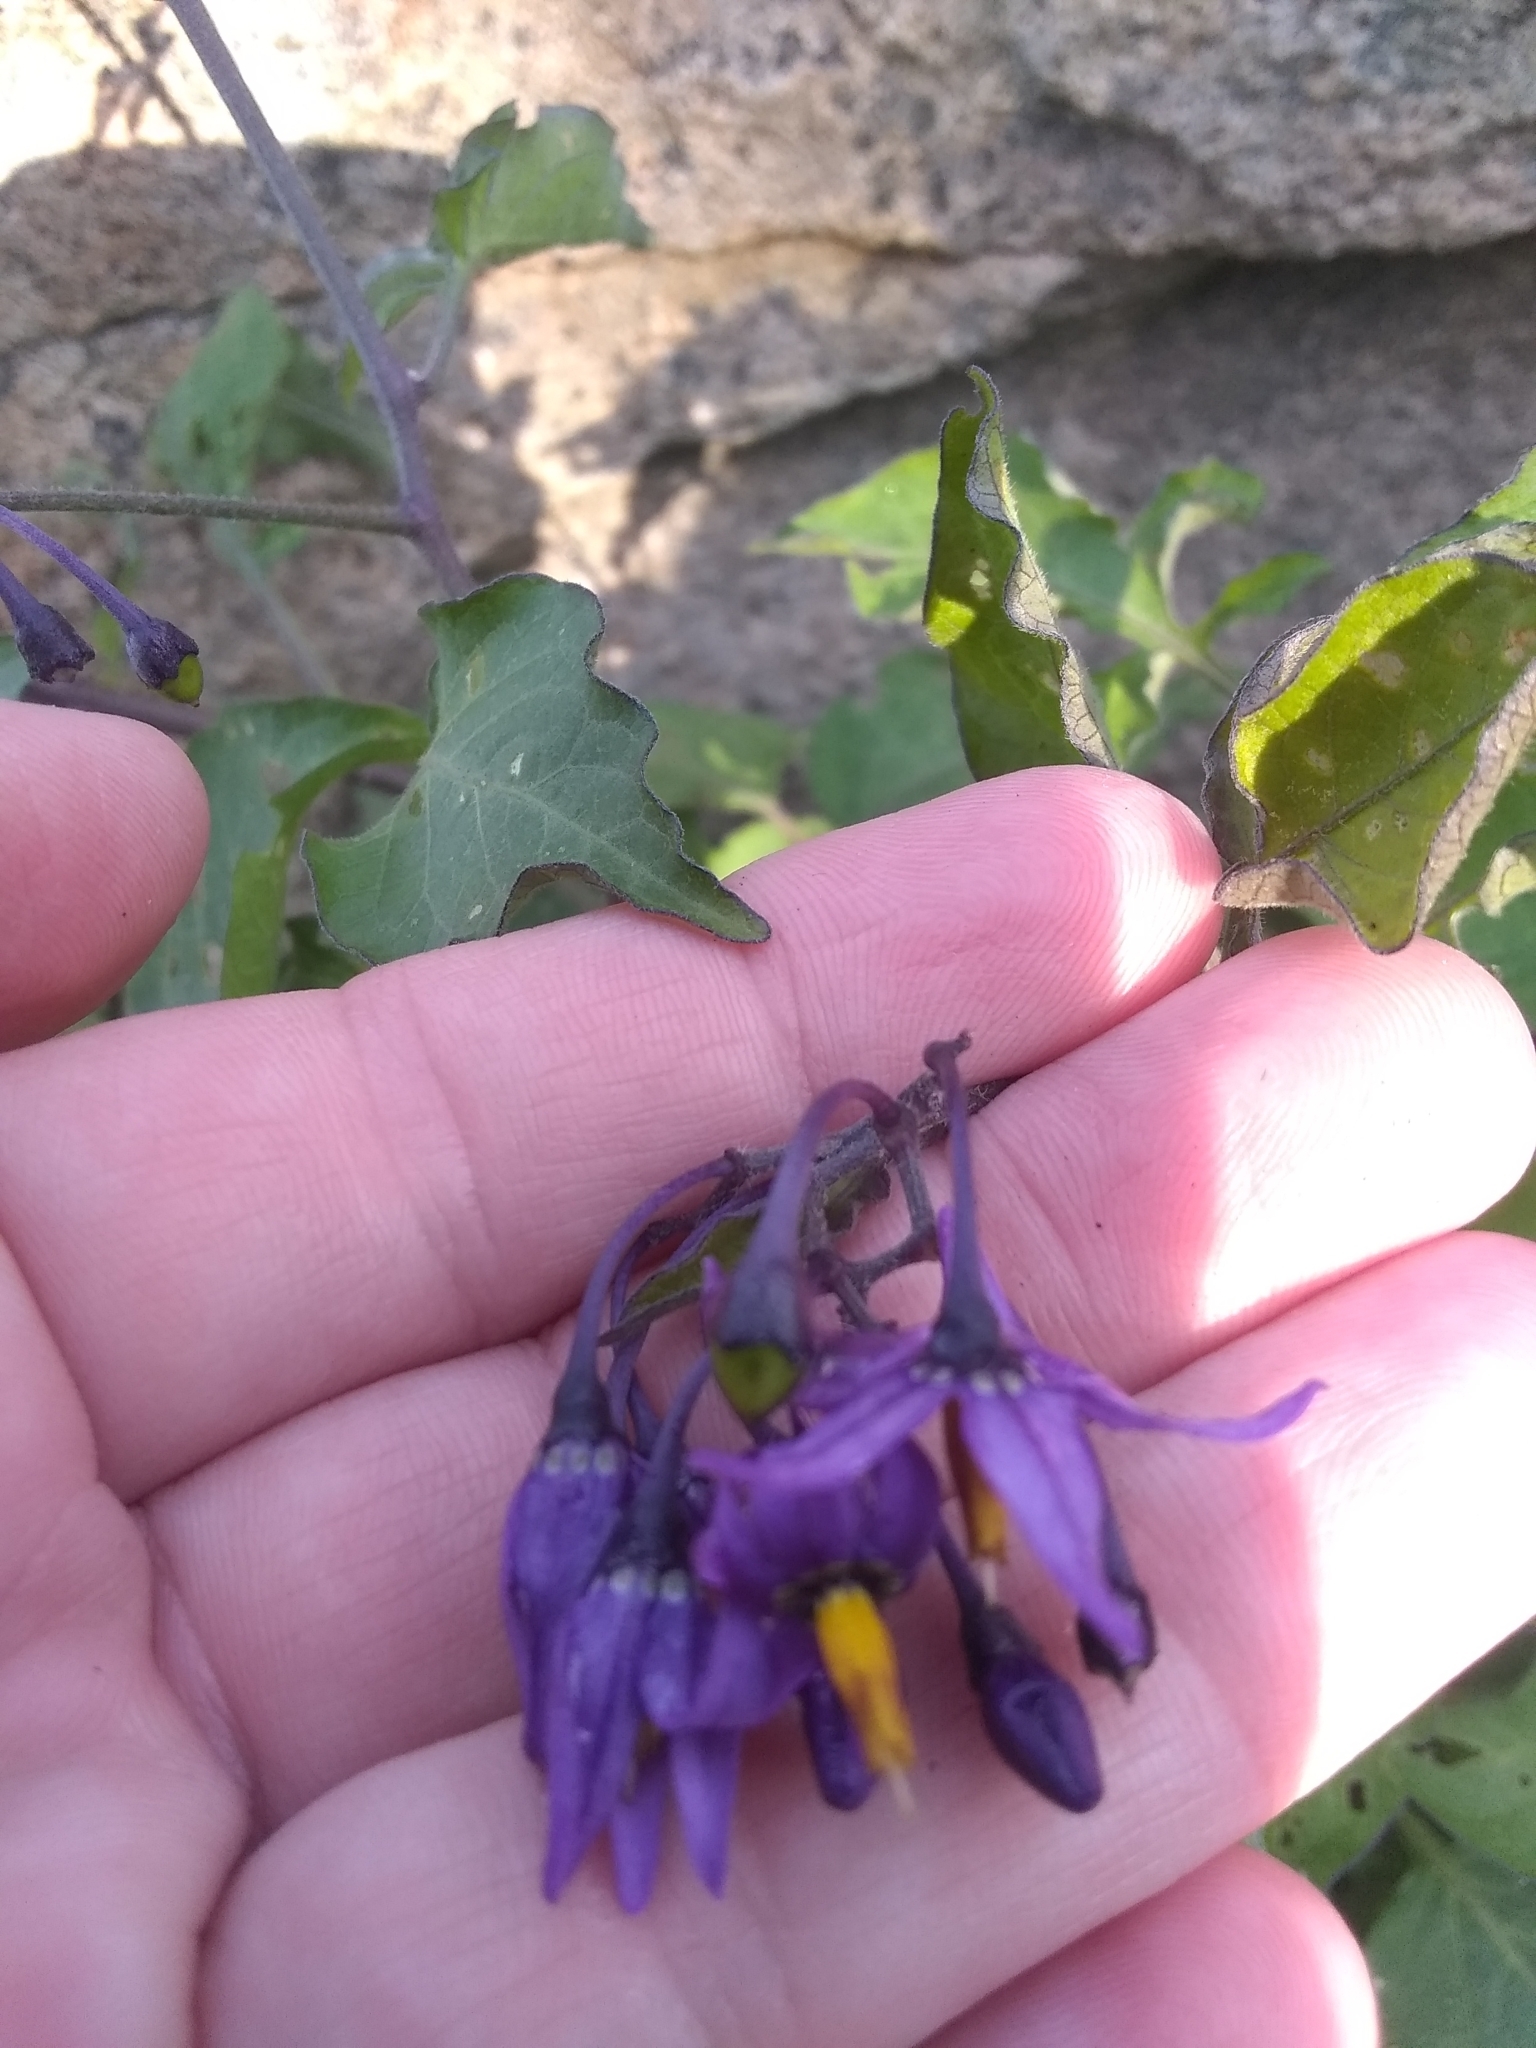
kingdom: Plantae
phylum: Tracheophyta
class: Magnoliopsida
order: Solanales
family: Solanaceae
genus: Solanum
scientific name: Solanum dulcamara
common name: Climbing nightshade
